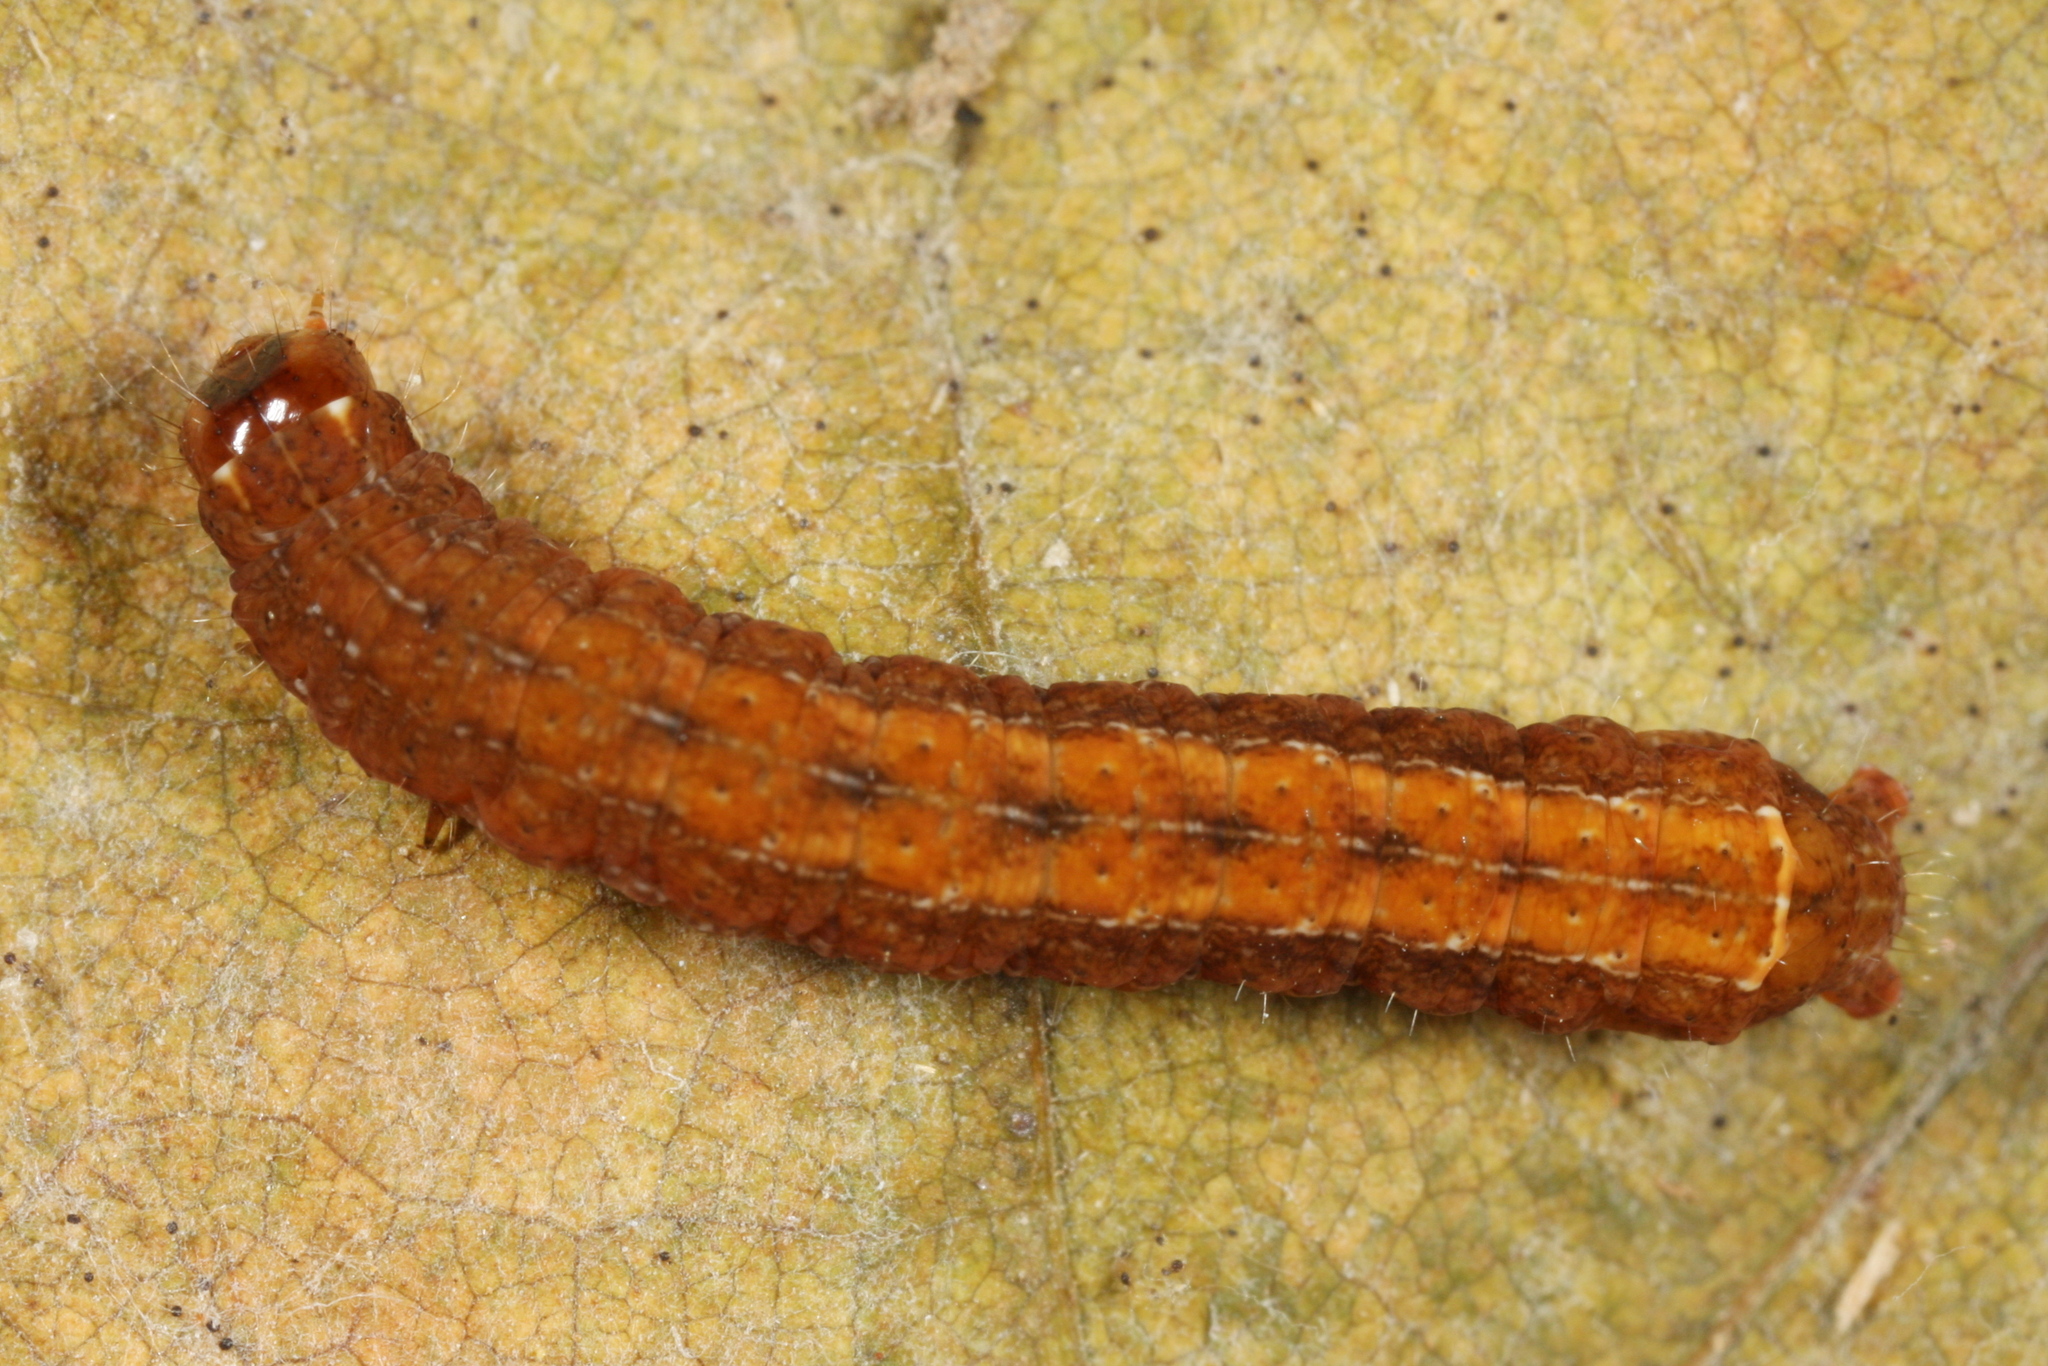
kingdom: Animalia
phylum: Arthropoda
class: Insecta
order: Lepidoptera
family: Noctuidae
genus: Diarsia
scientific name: Diarsia brunnea
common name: Purple clay
